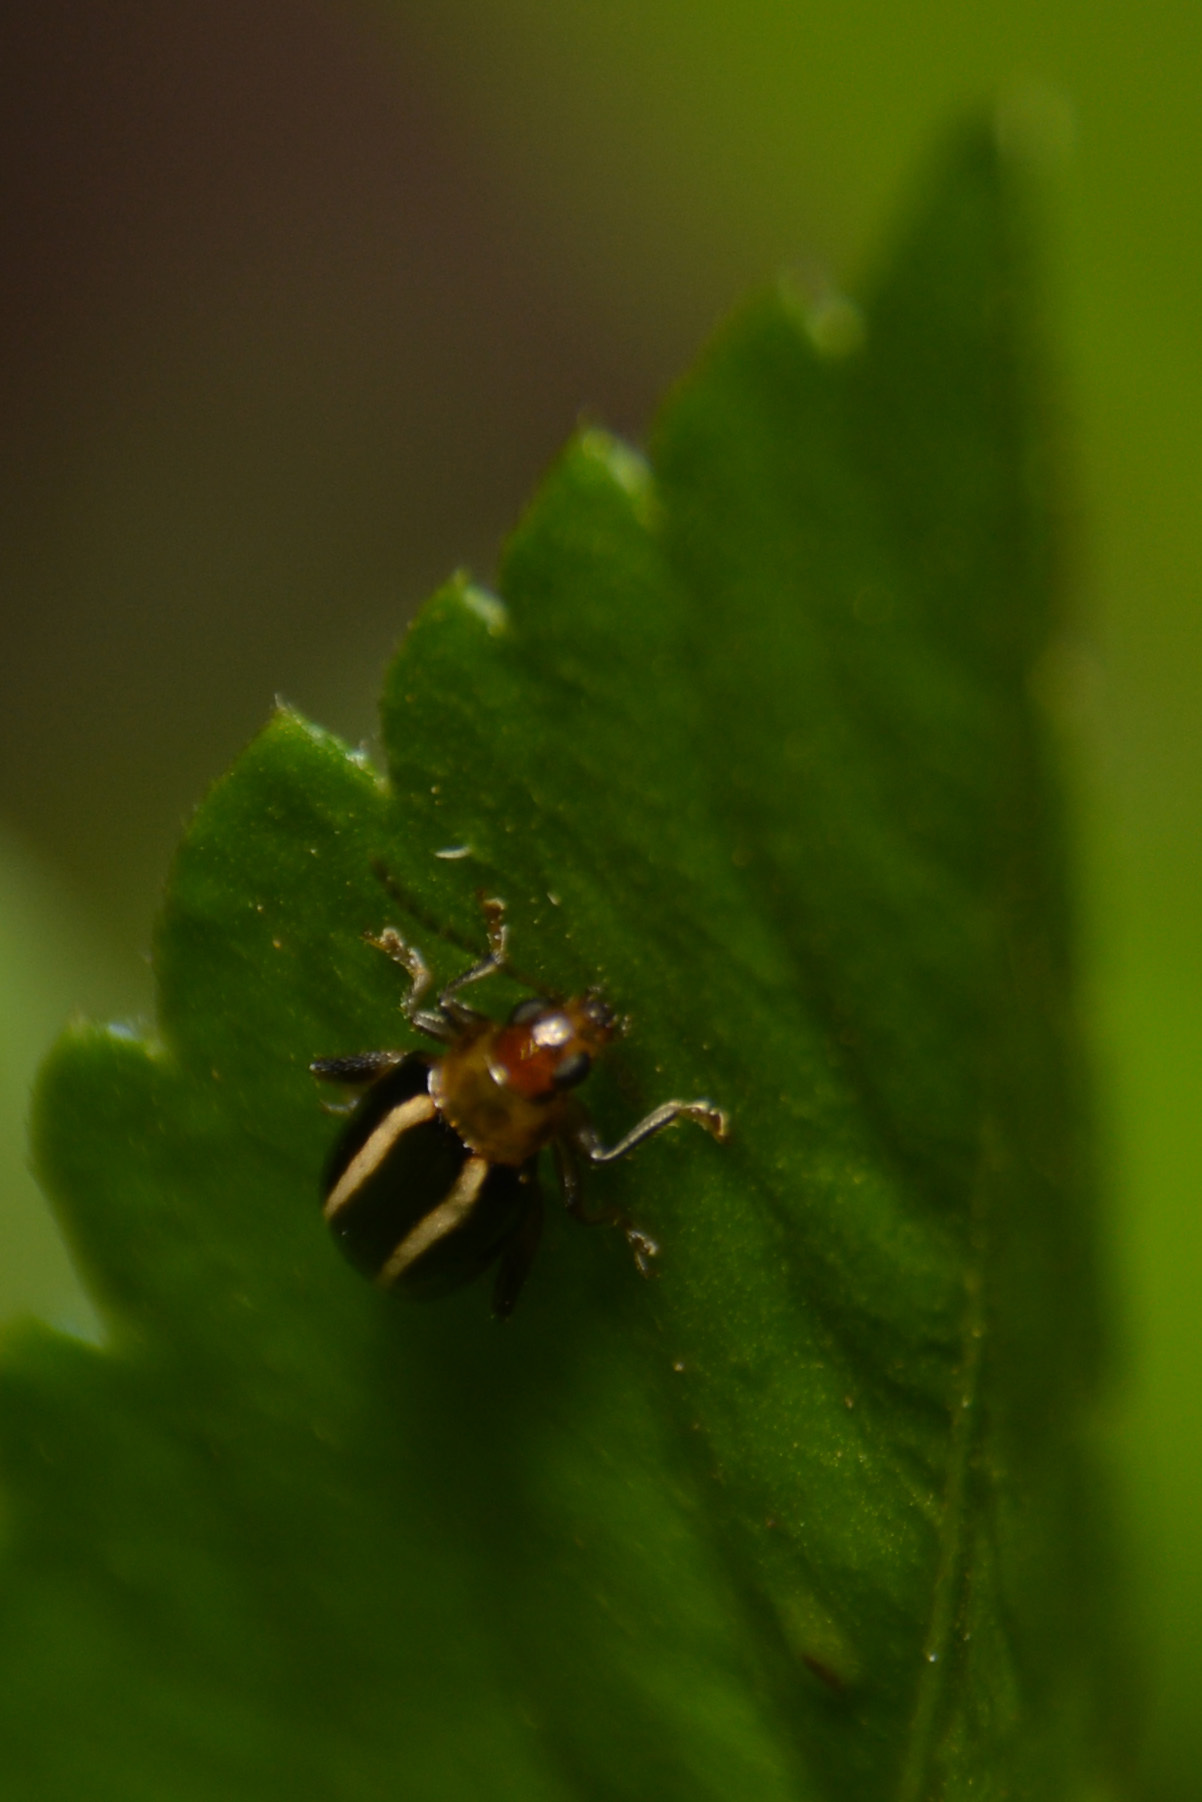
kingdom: Animalia
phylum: Arthropoda
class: Insecta
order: Coleoptera
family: Chrysomelidae
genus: Systena
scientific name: Systena
